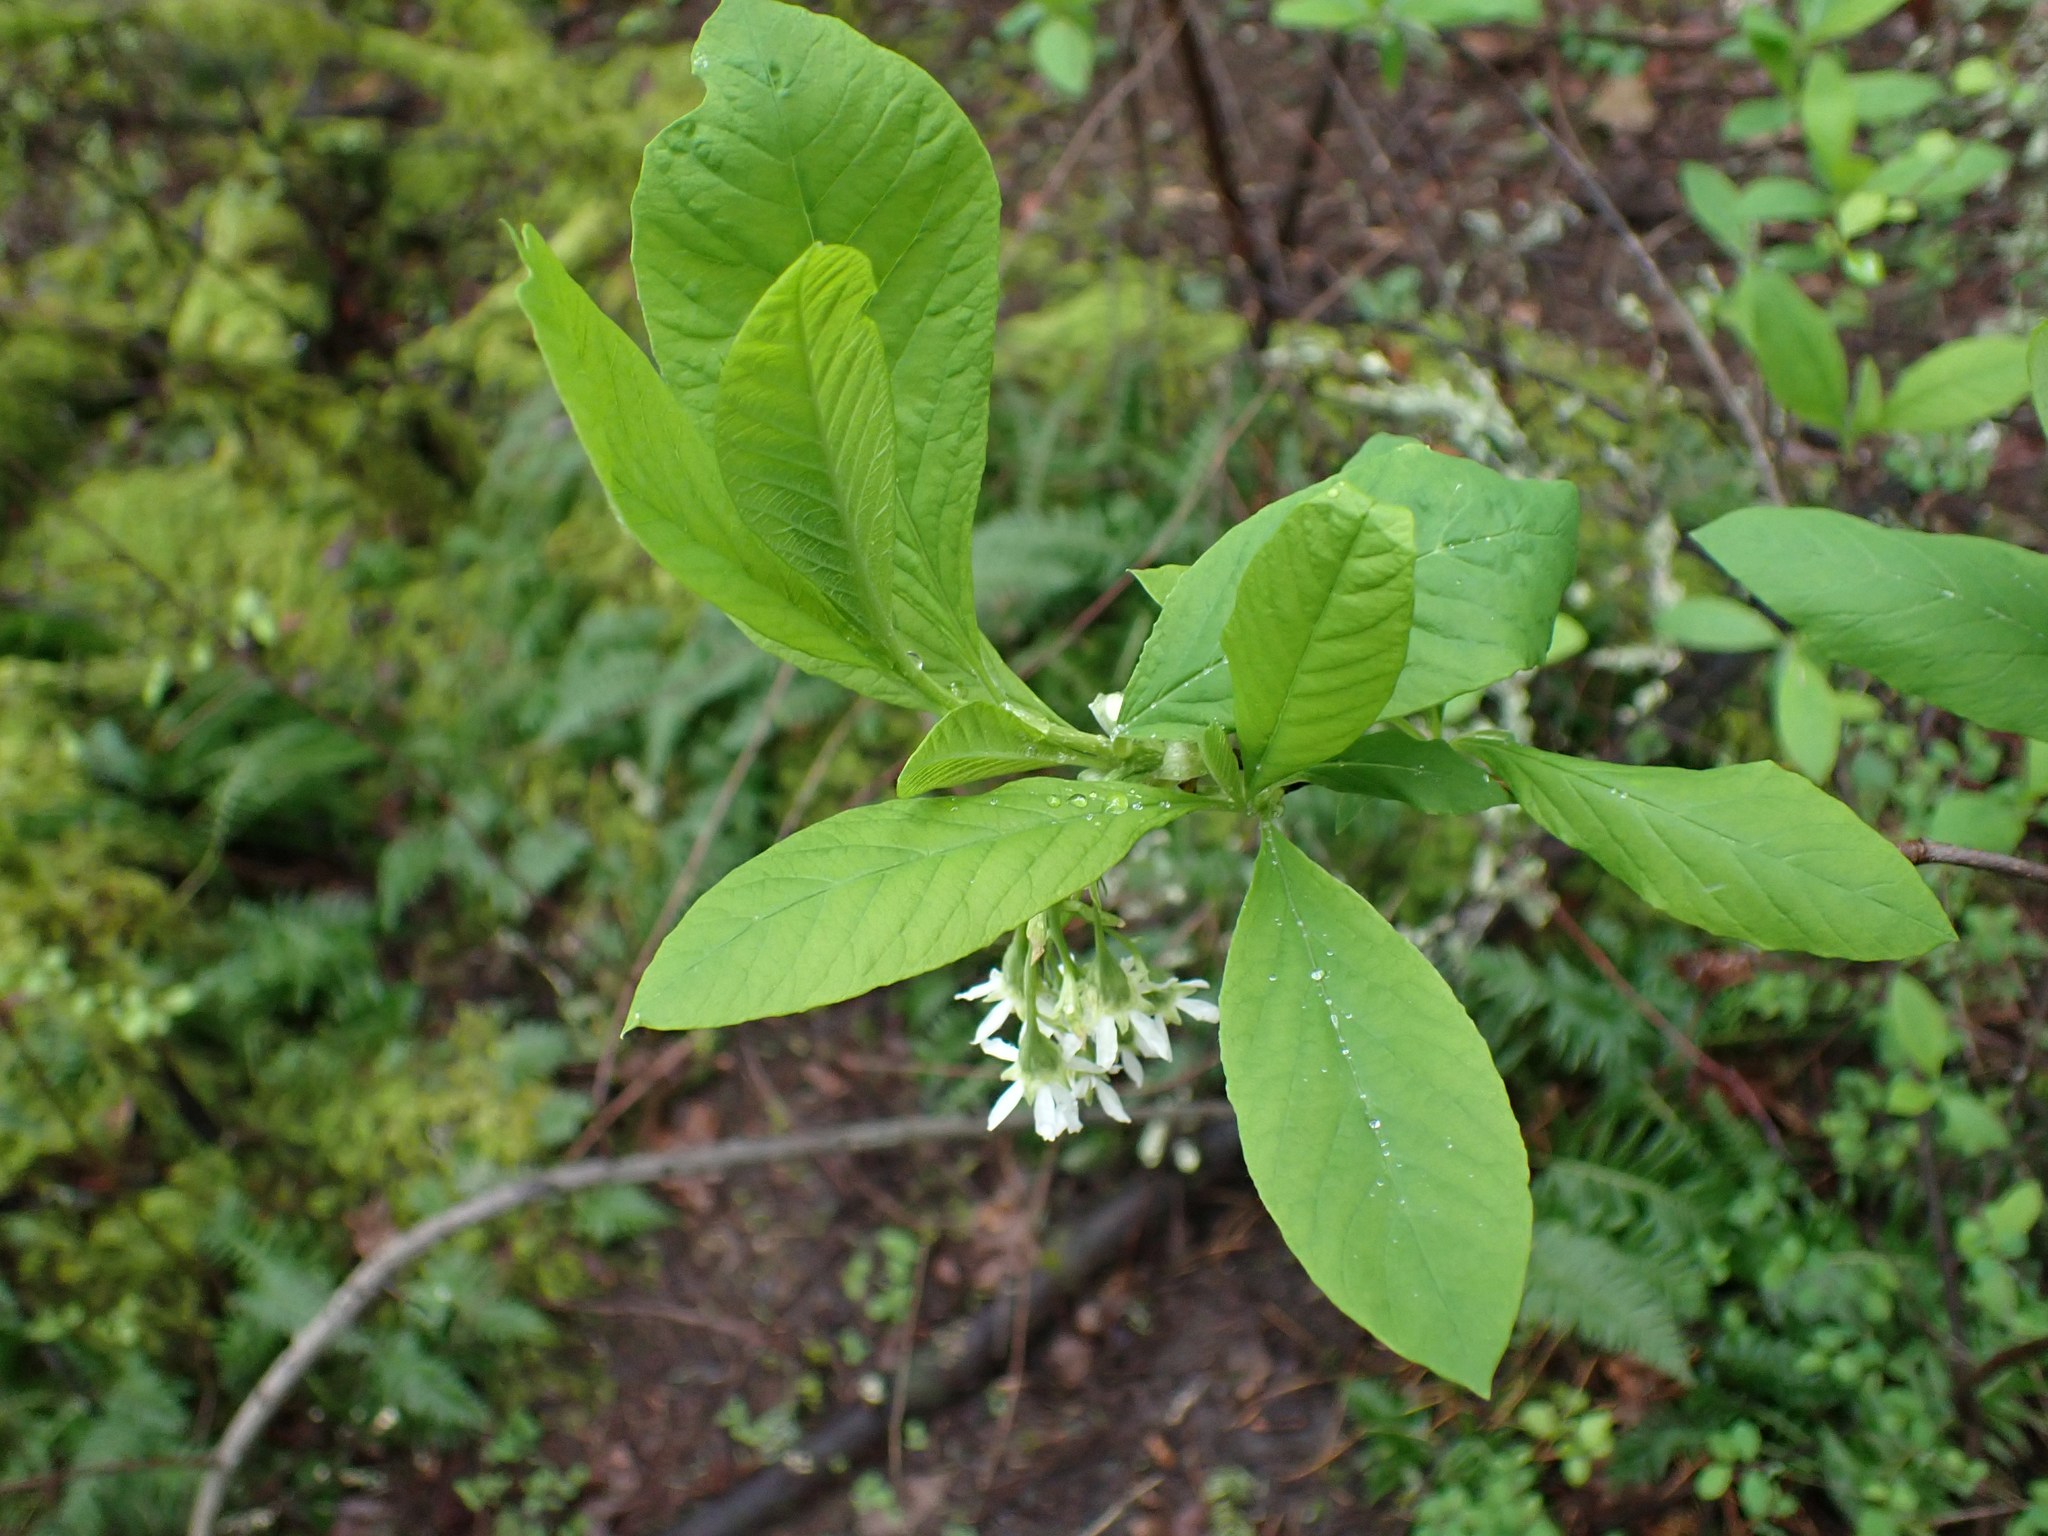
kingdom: Plantae
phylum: Tracheophyta
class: Magnoliopsida
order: Rosales
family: Rosaceae
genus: Oemleria
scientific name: Oemleria cerasiformis
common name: Osoberry
